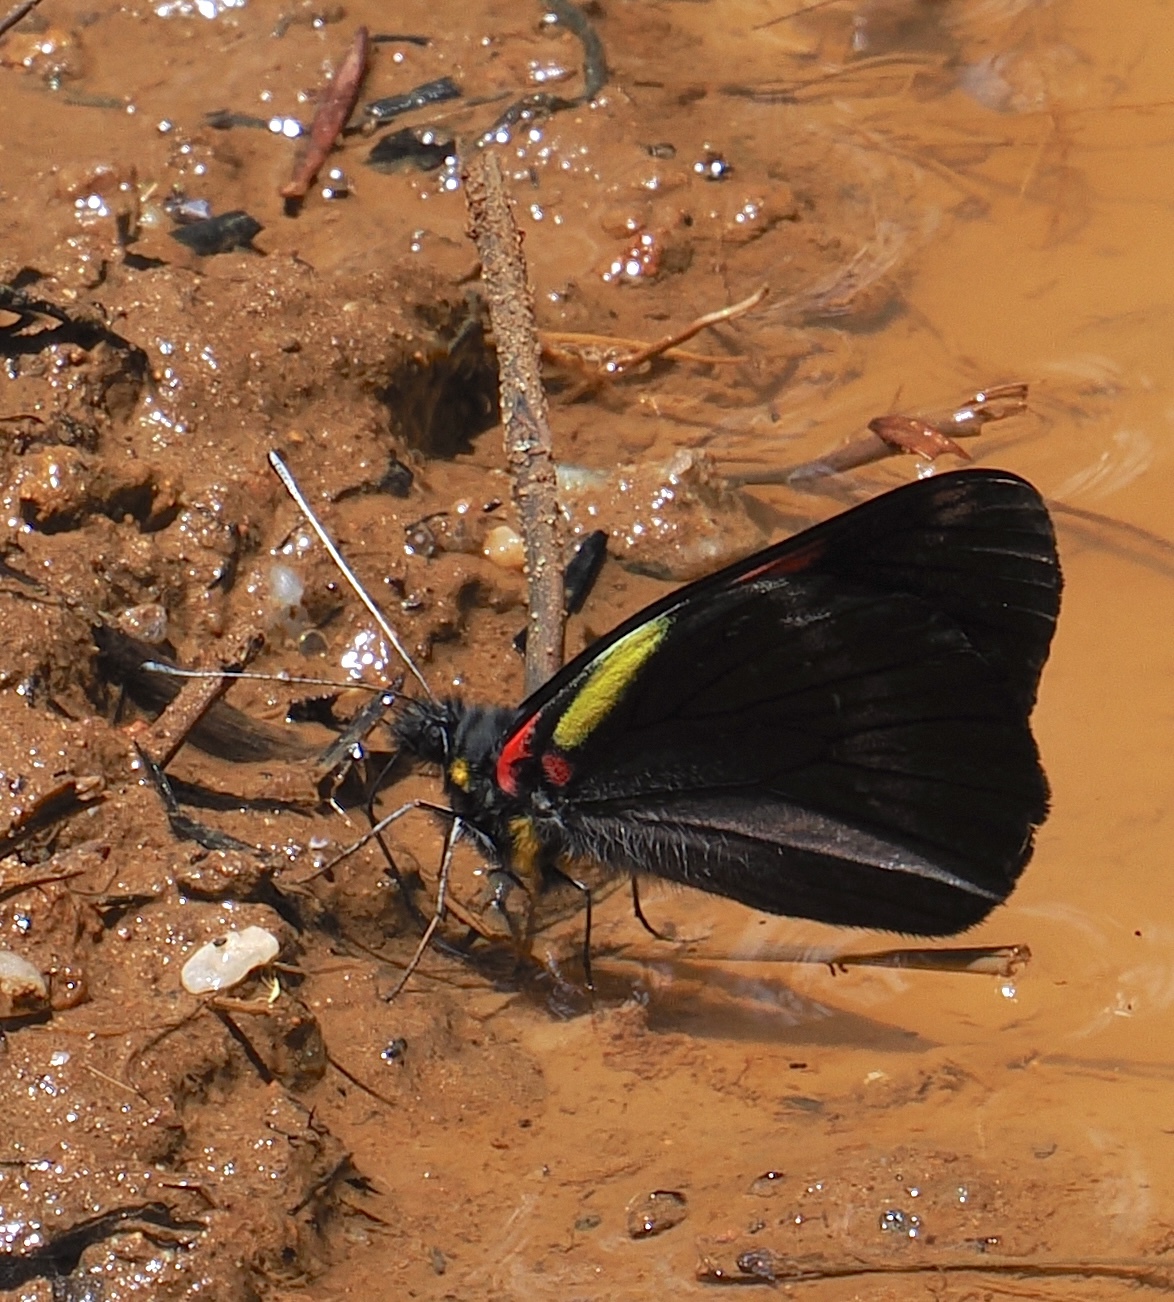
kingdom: Animalia
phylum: Arthropoda
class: Insecta
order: Lepidoptera
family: Pieridae
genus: Pereute
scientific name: Pereute swainsoni
